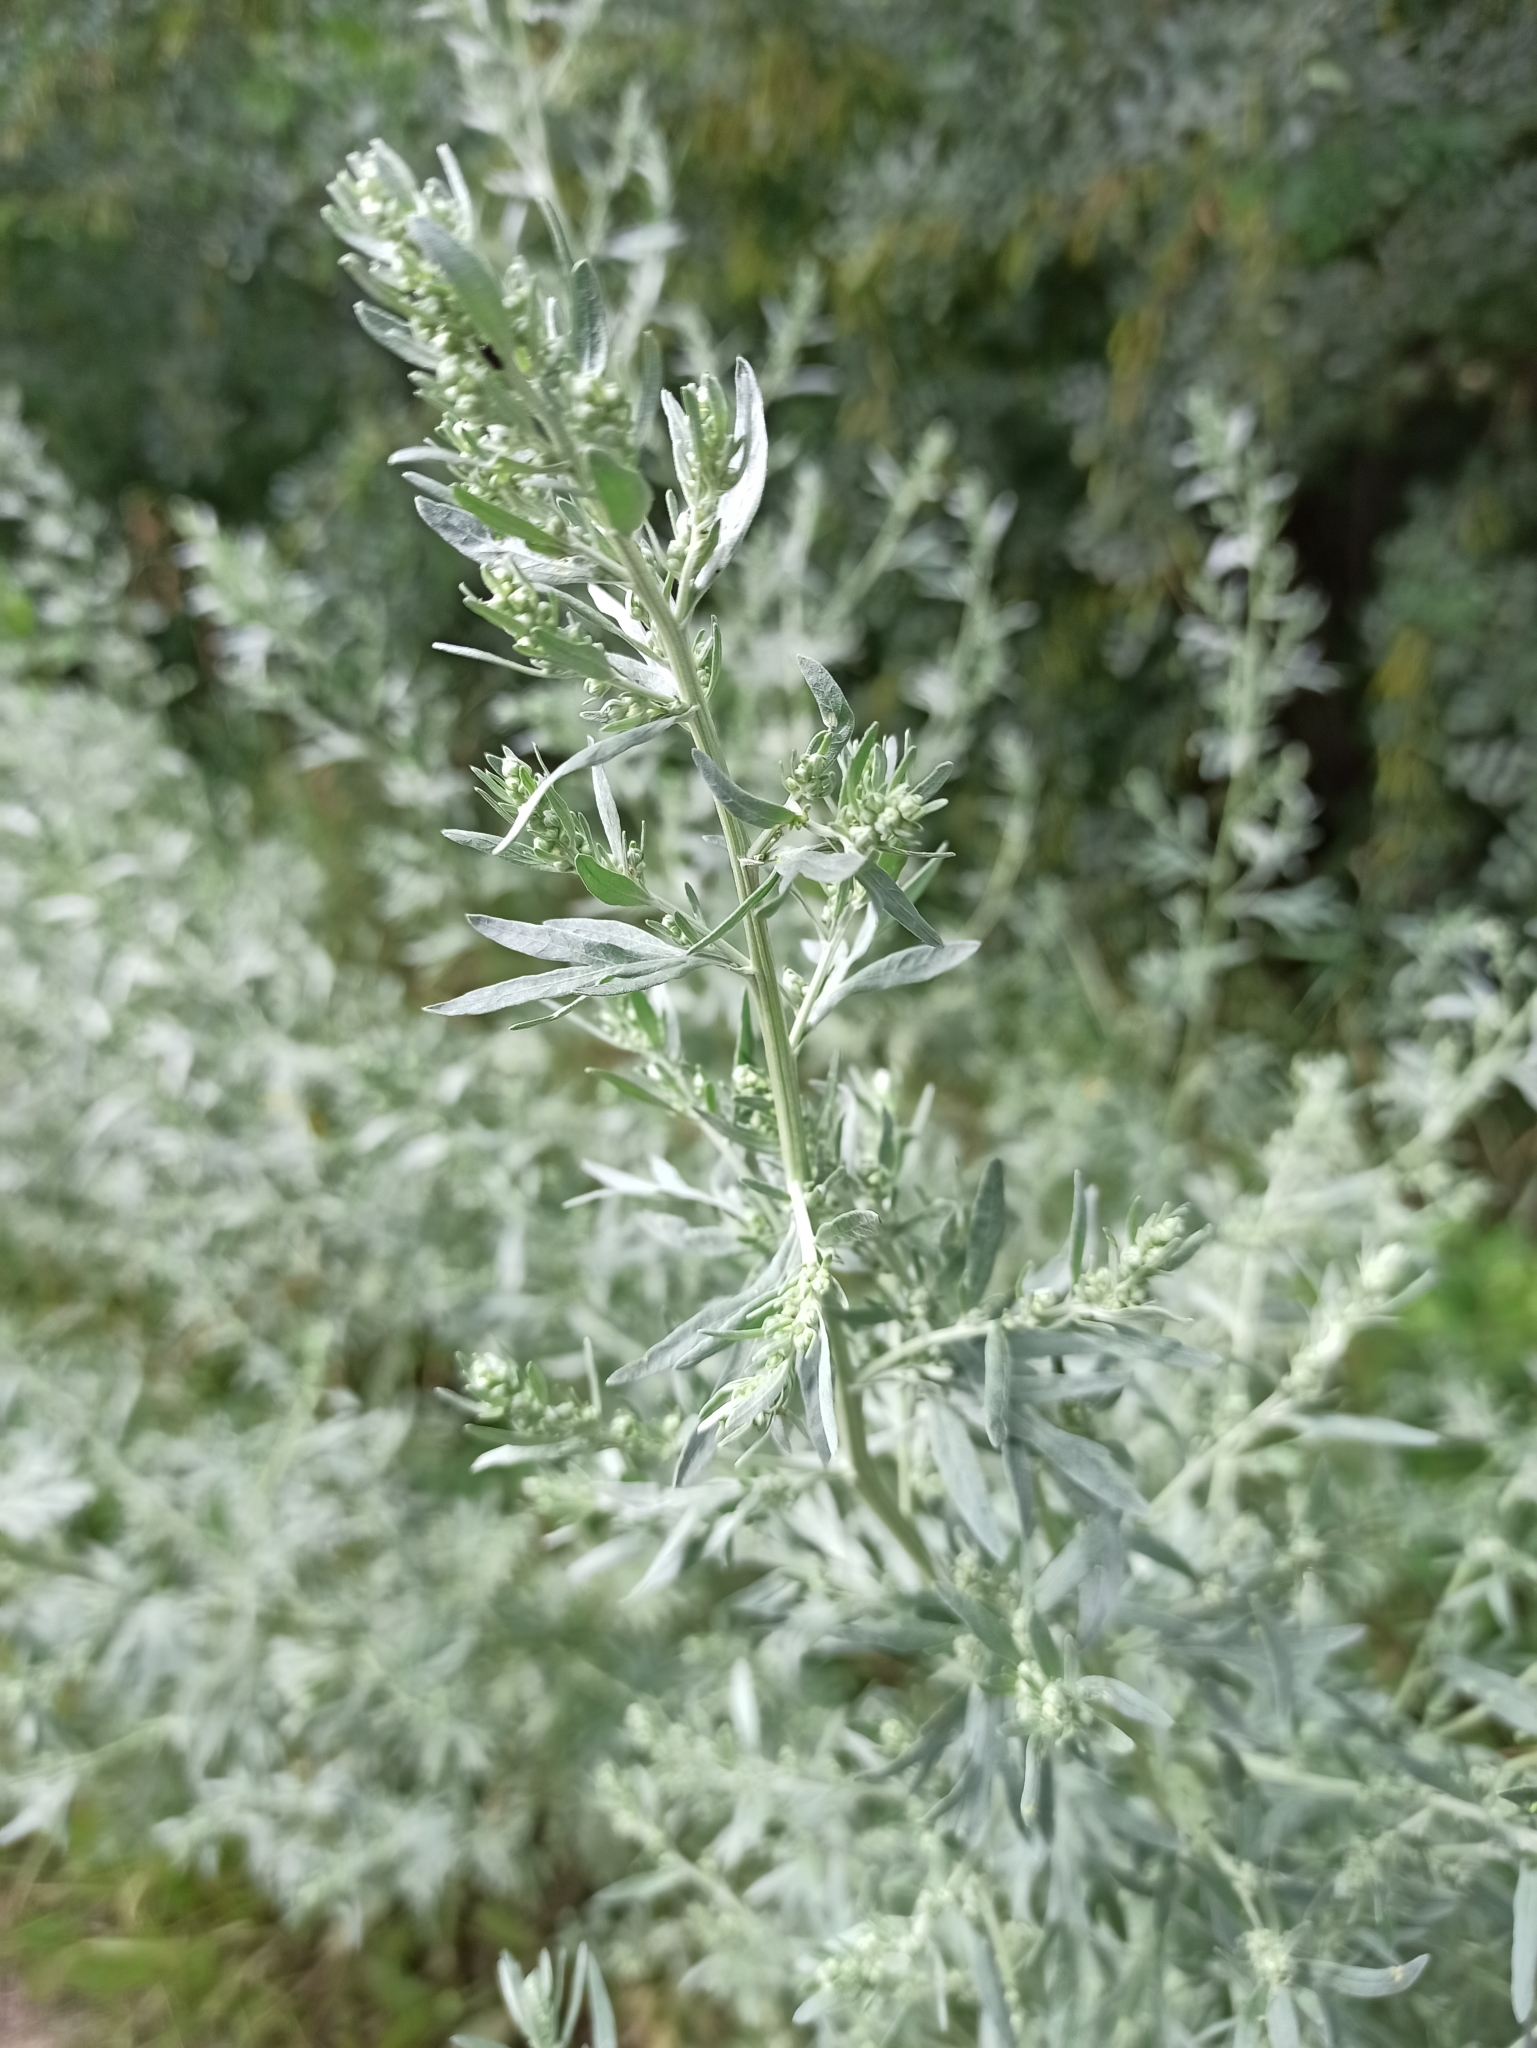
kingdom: Plantae
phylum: Tracheophyta
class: Magnoliopsida
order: Asterales
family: Asteraceae
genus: Artemisia
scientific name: Artemisia absinthium
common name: Wormwood
